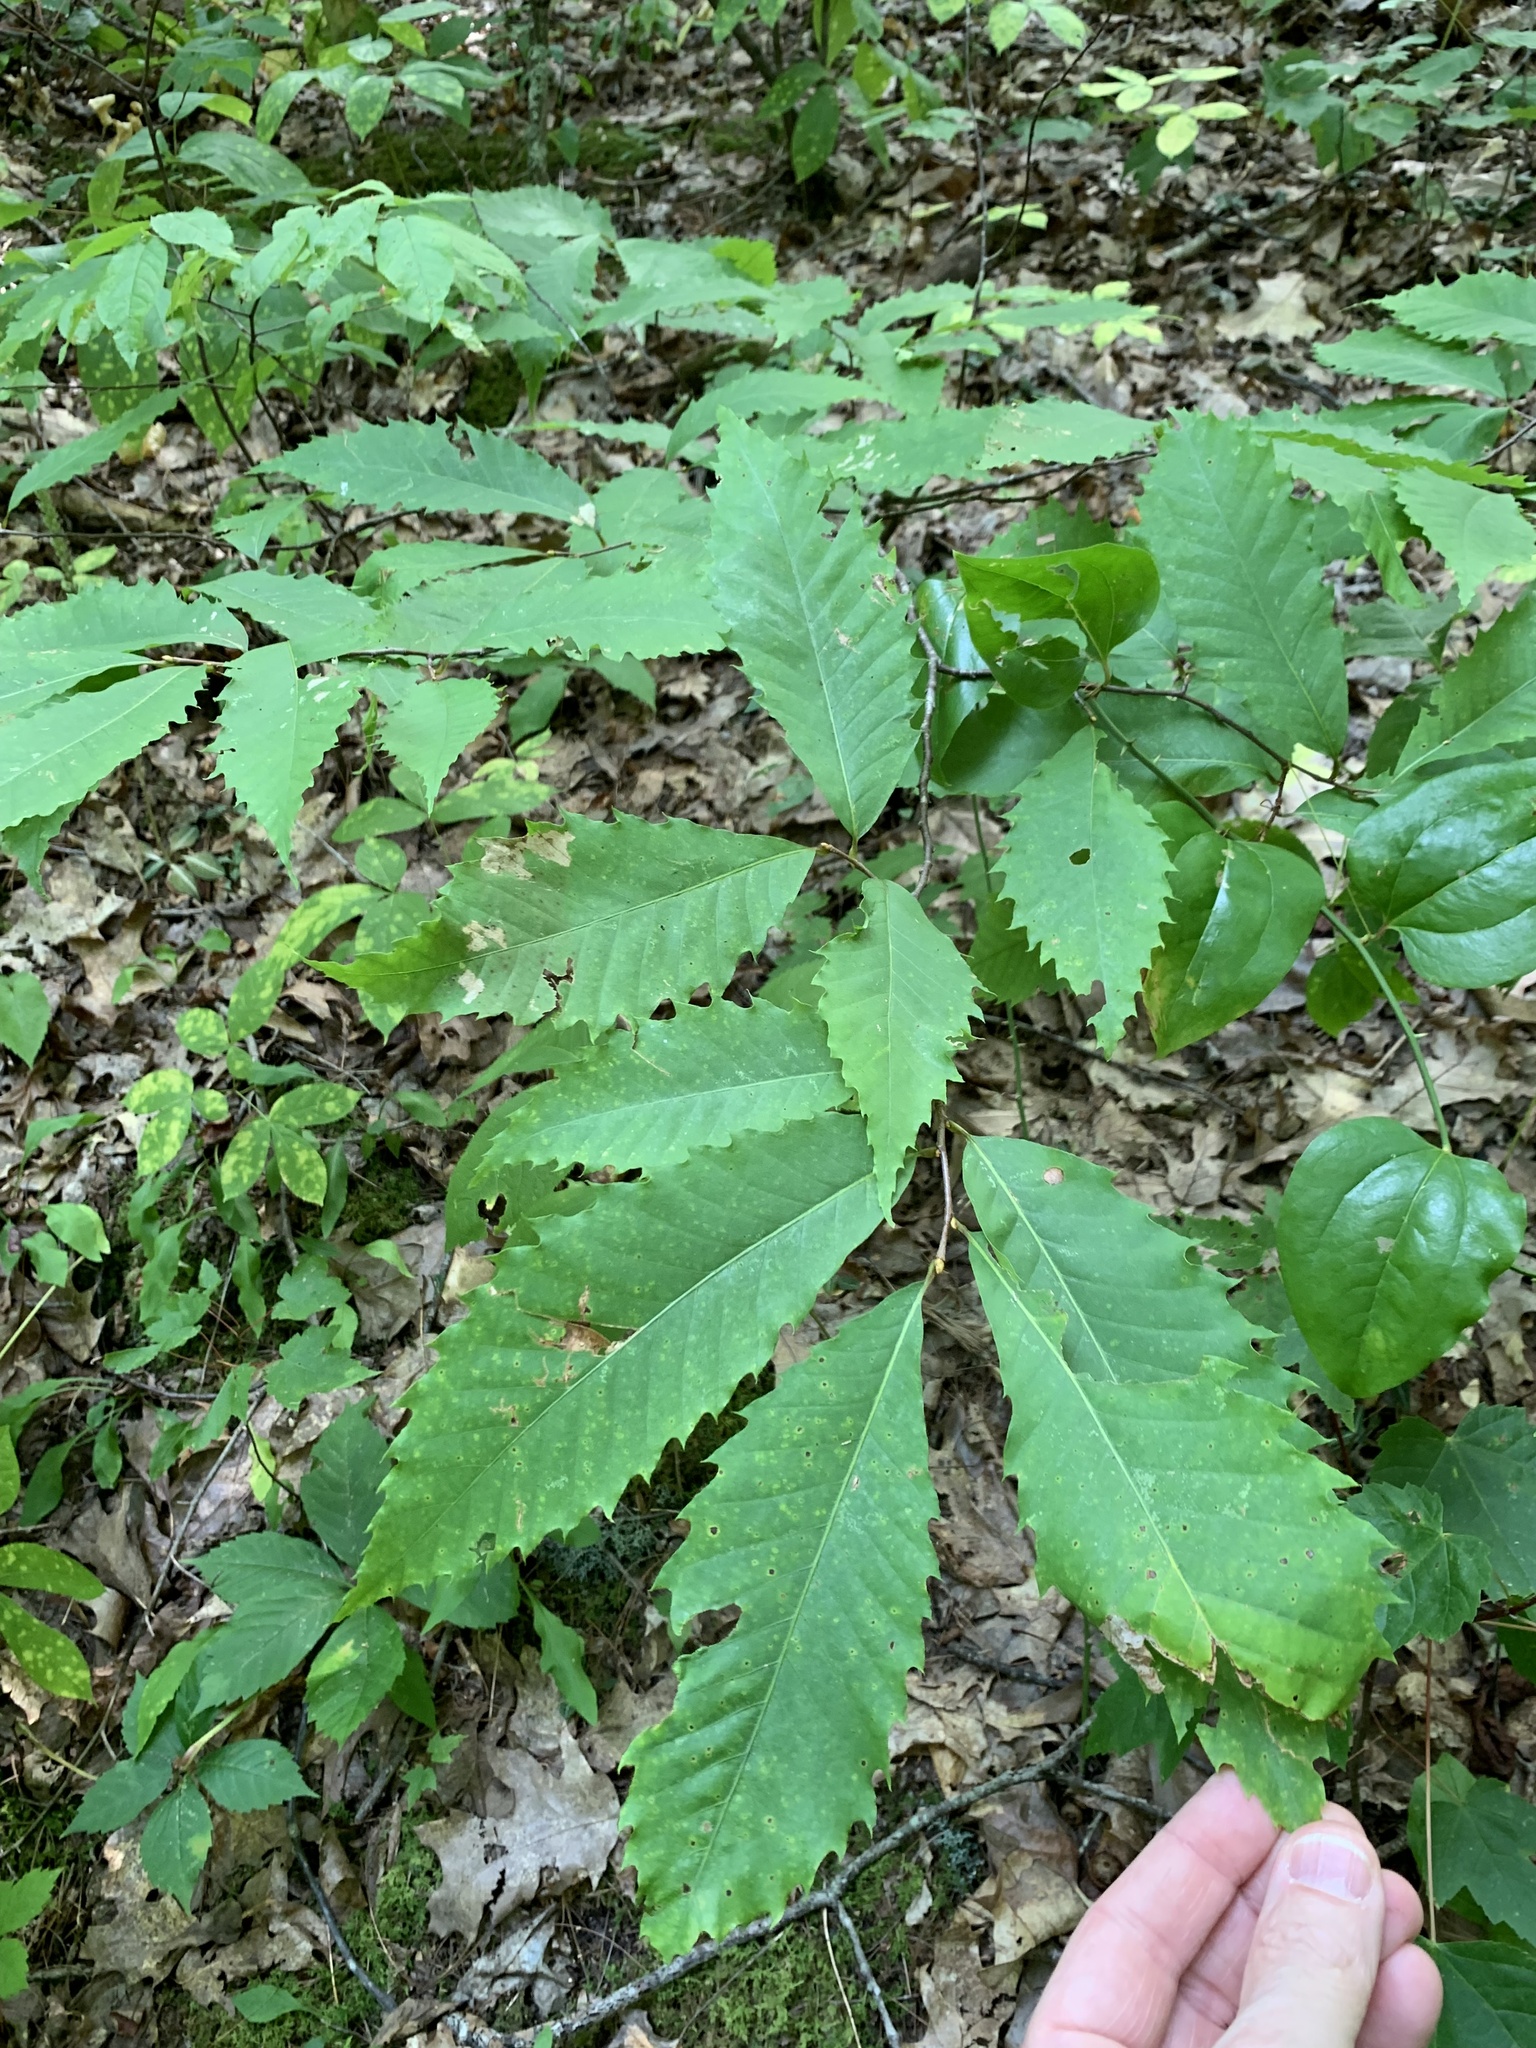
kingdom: Plantae
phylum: Tracheophyta
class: Magnoliopsida
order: Fagales
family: Fagaceae
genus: Castanea
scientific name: Castanea dentata
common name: American chestnut
